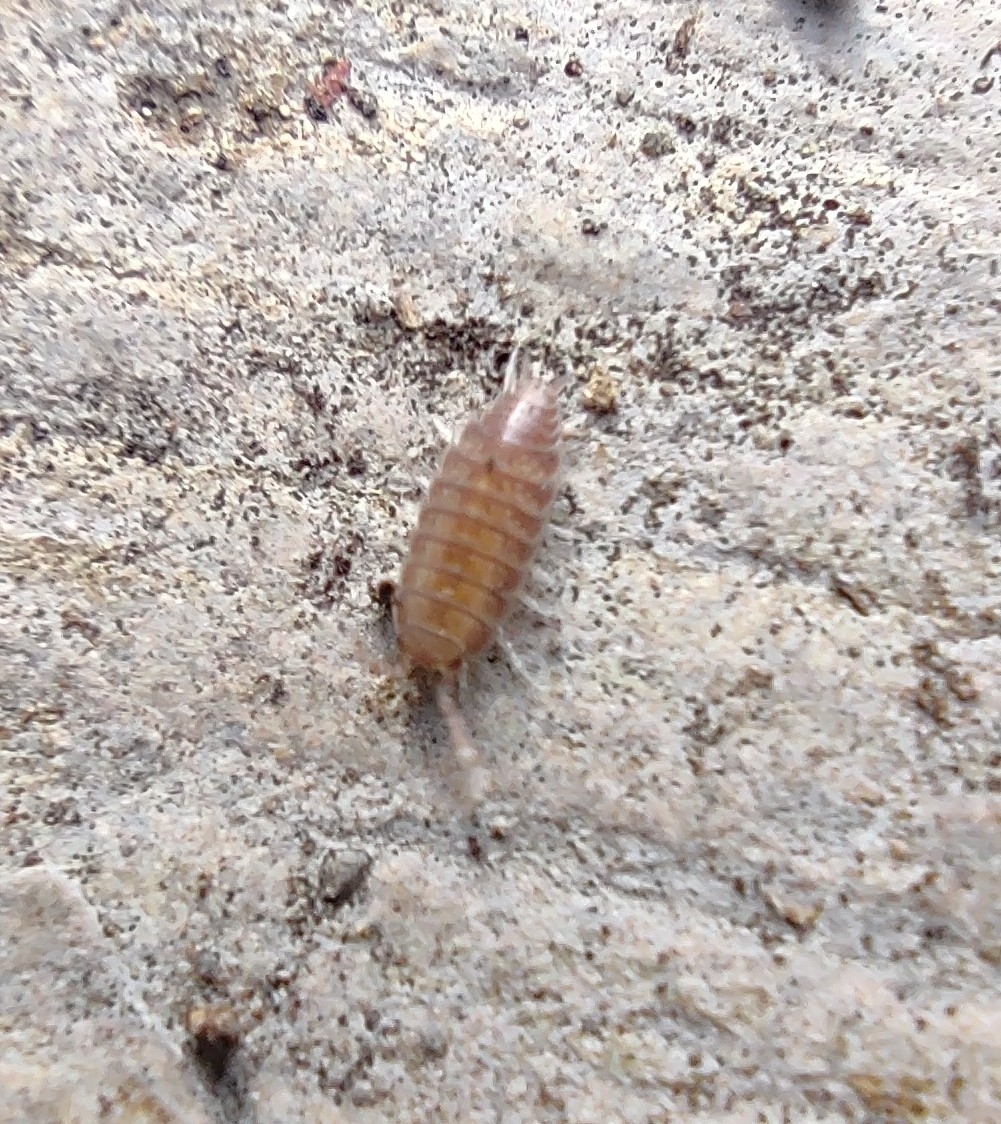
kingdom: Animalia
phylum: Arthropoda
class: Malacostraca
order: Isopoda
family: Porcellionidae
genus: Porcellionides
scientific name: Porcellionides pruinosus
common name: Plum woodlouse
